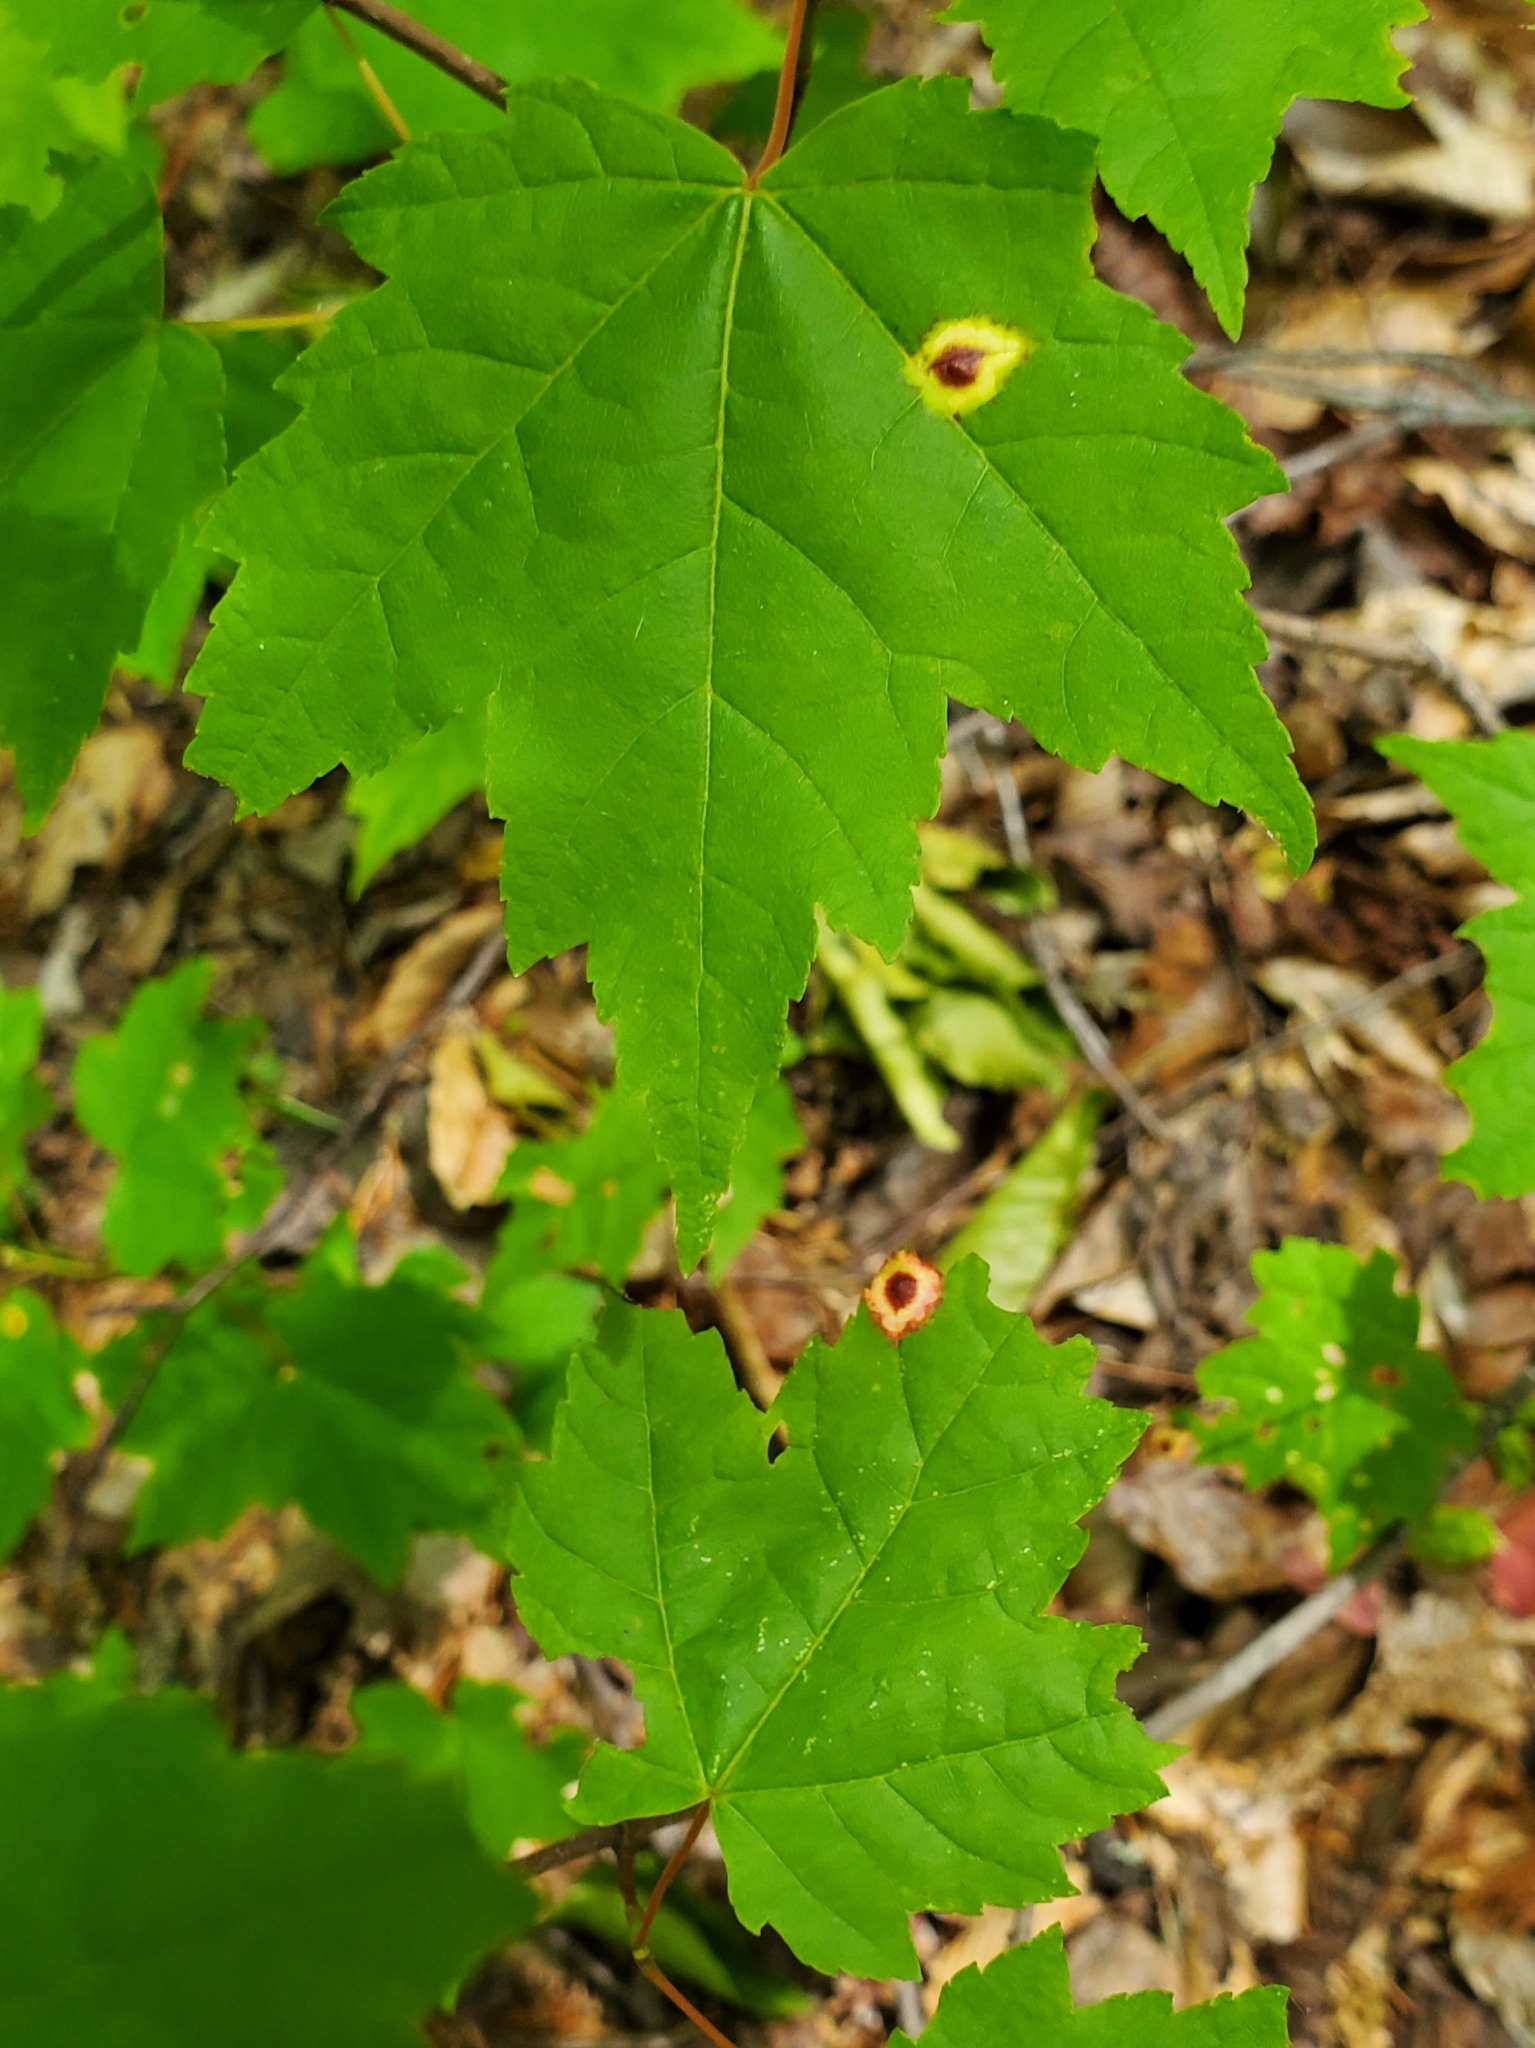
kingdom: Animalia
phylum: Arthropoda
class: Insecta
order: Diptera
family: Cecidomyiidae
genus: Acericecis
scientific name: Acericecis ocellaris
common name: Ocellate gall midge
